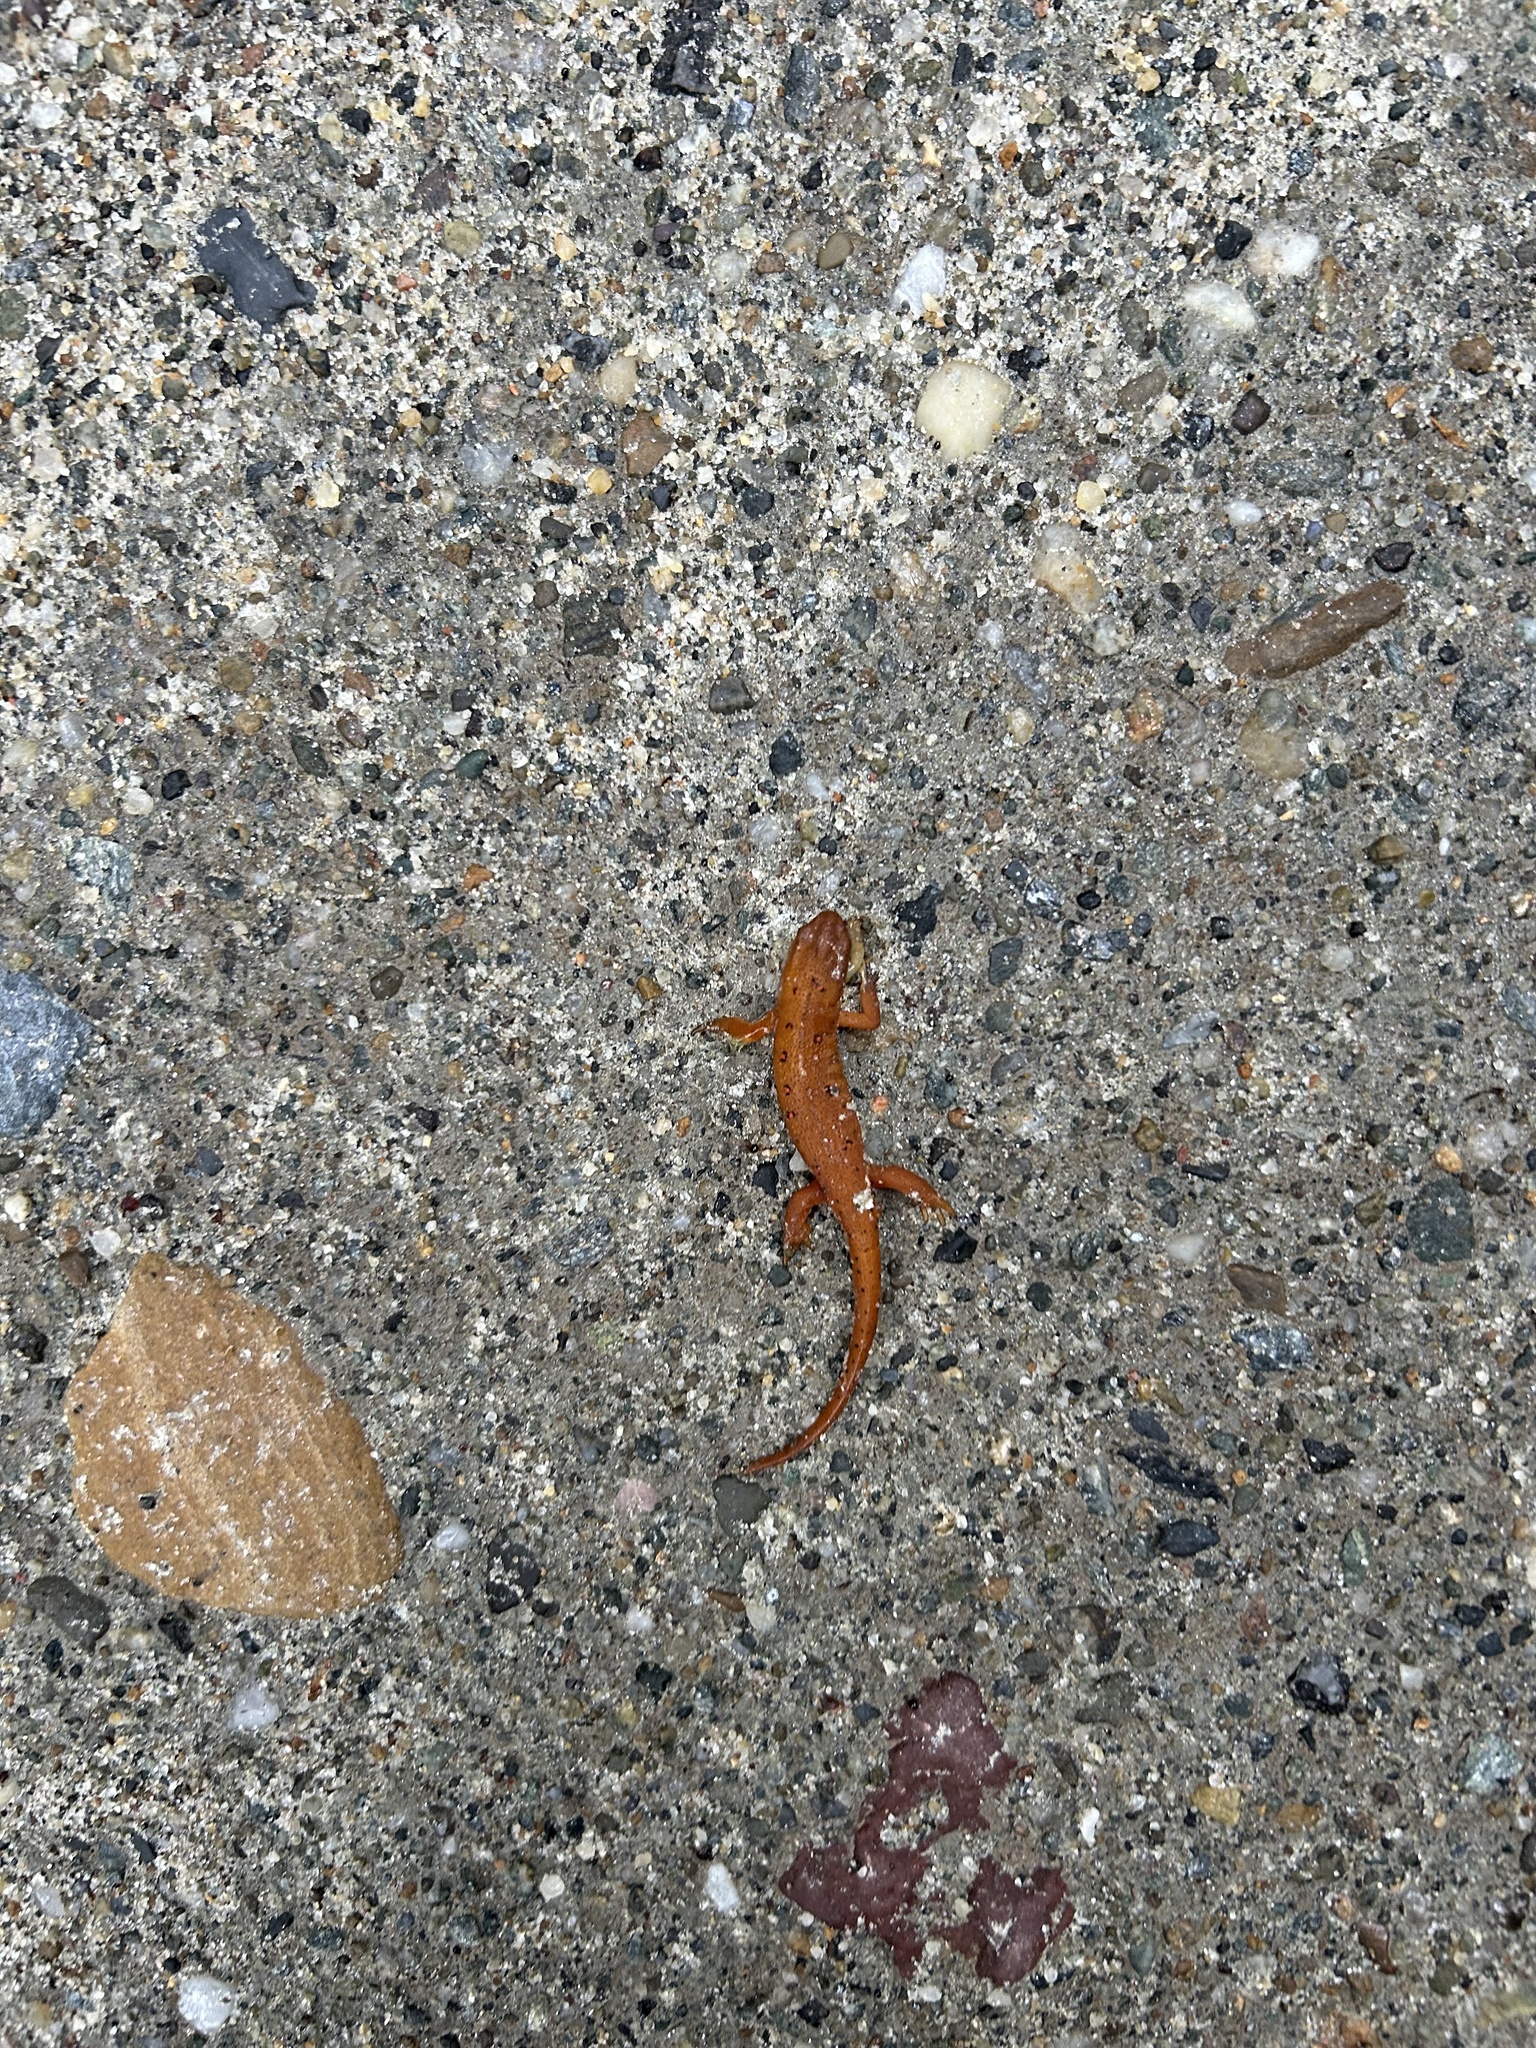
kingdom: Animalia
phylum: Chordata
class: Amphibia
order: Caudata
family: Salamandridae
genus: Notophthalmus
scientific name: Notophthalmus viridescens
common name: Eastern newt
